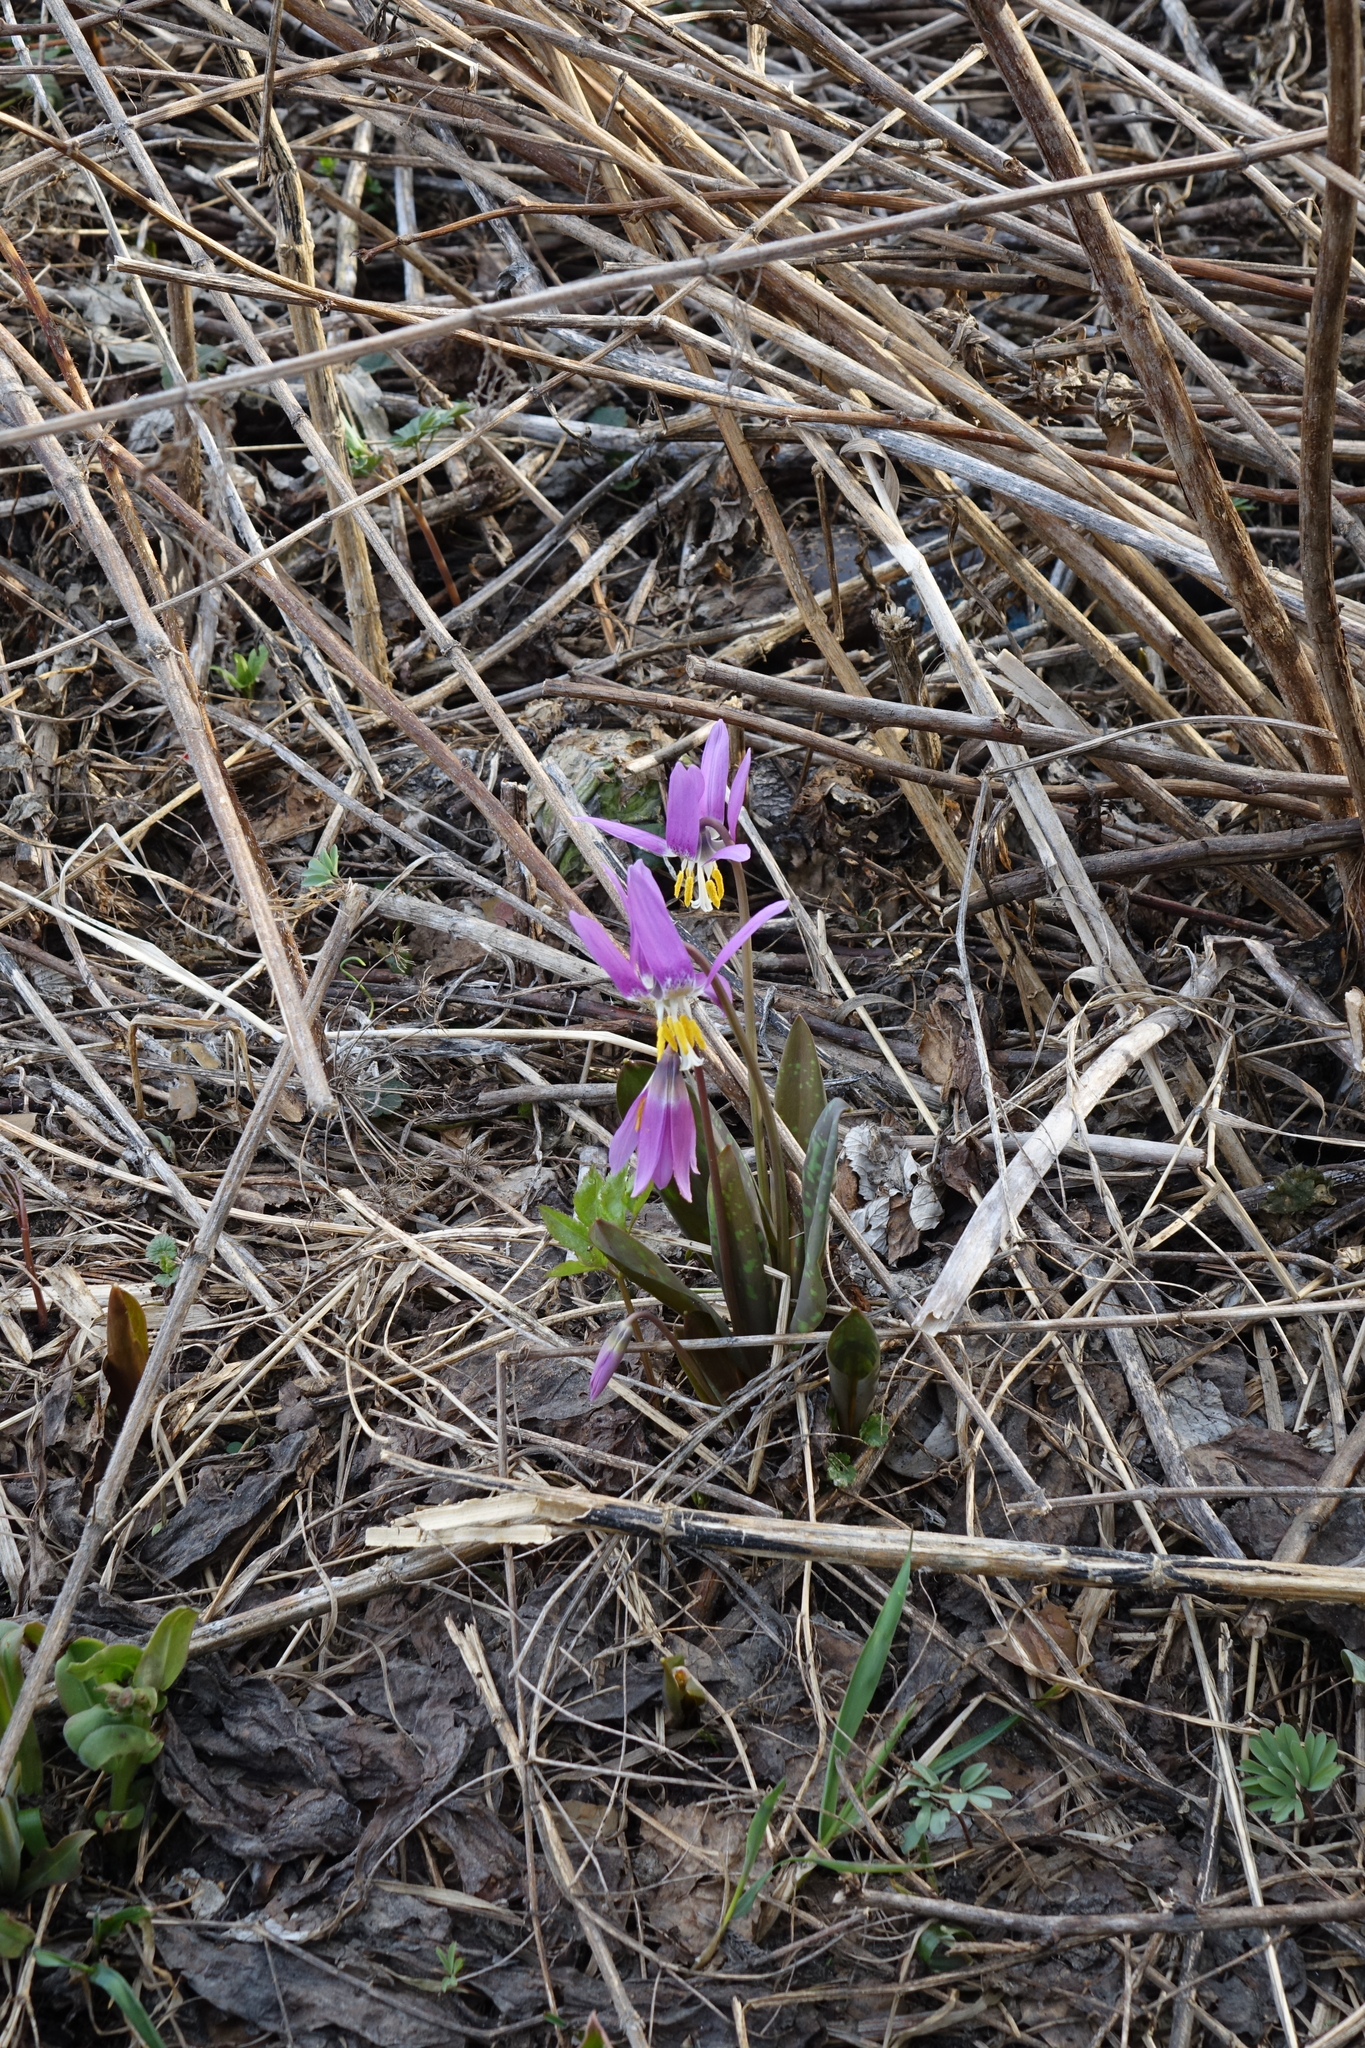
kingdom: Plantae
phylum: Tracheophyta
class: Liliopsida
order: Liliales
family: Liliaceae
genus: Erythronium
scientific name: Erythronium sibiricum
